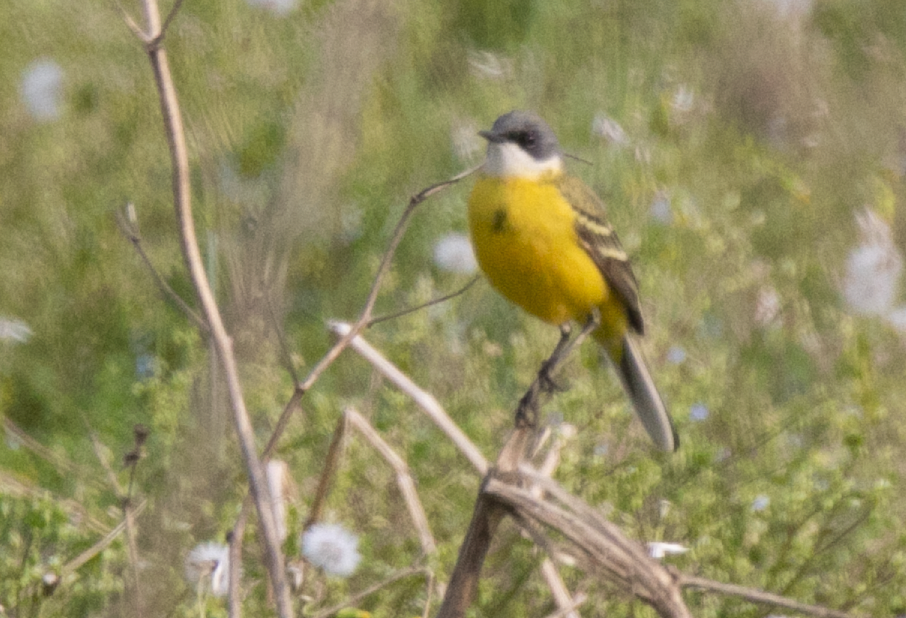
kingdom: Animalia
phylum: Chordata
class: Aves
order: Passeriformes
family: Motacillidae
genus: Motacilla
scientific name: Motacilla flava
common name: Western yellow wagtail
